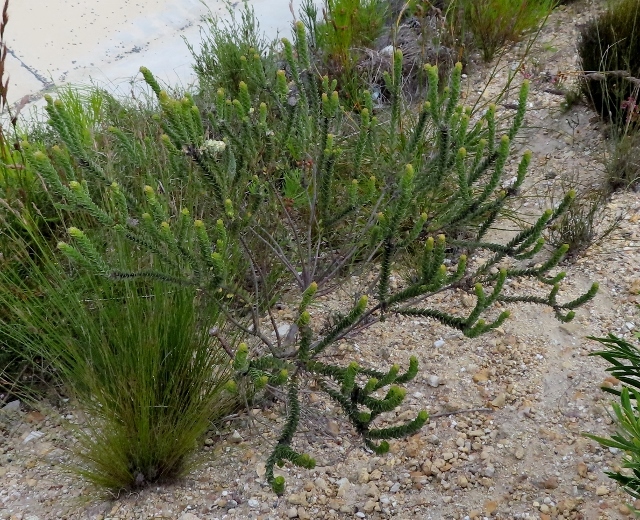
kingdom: Plantae
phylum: Tracheophyta
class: Magnoliopsida
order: Proteales
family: Proteaceae
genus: Leucospermum
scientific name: Leucospermum truncatulum
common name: Oval-leaf pincushion
